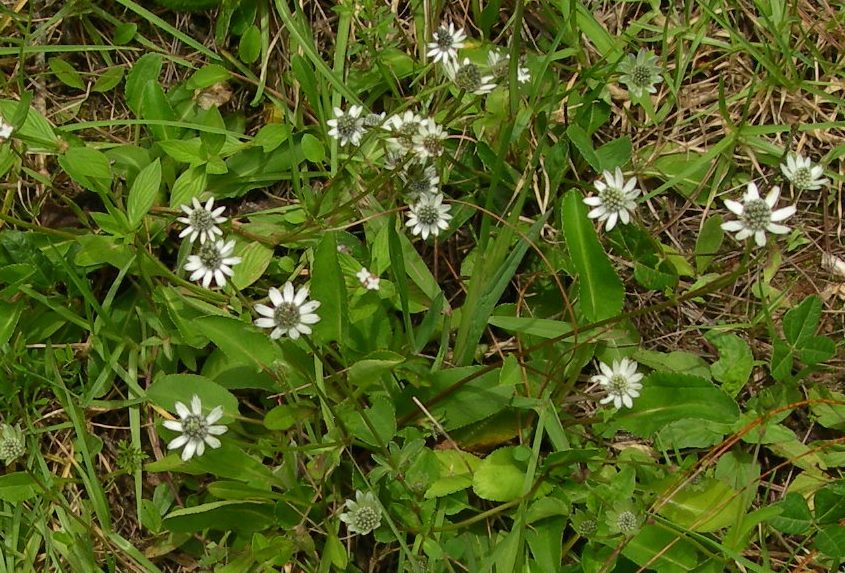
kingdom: Plantae
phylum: Tracheophyta
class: Magnoliopsida
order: Apiales
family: Apiaceae
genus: Eryngium
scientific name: Eryngium scaposum
